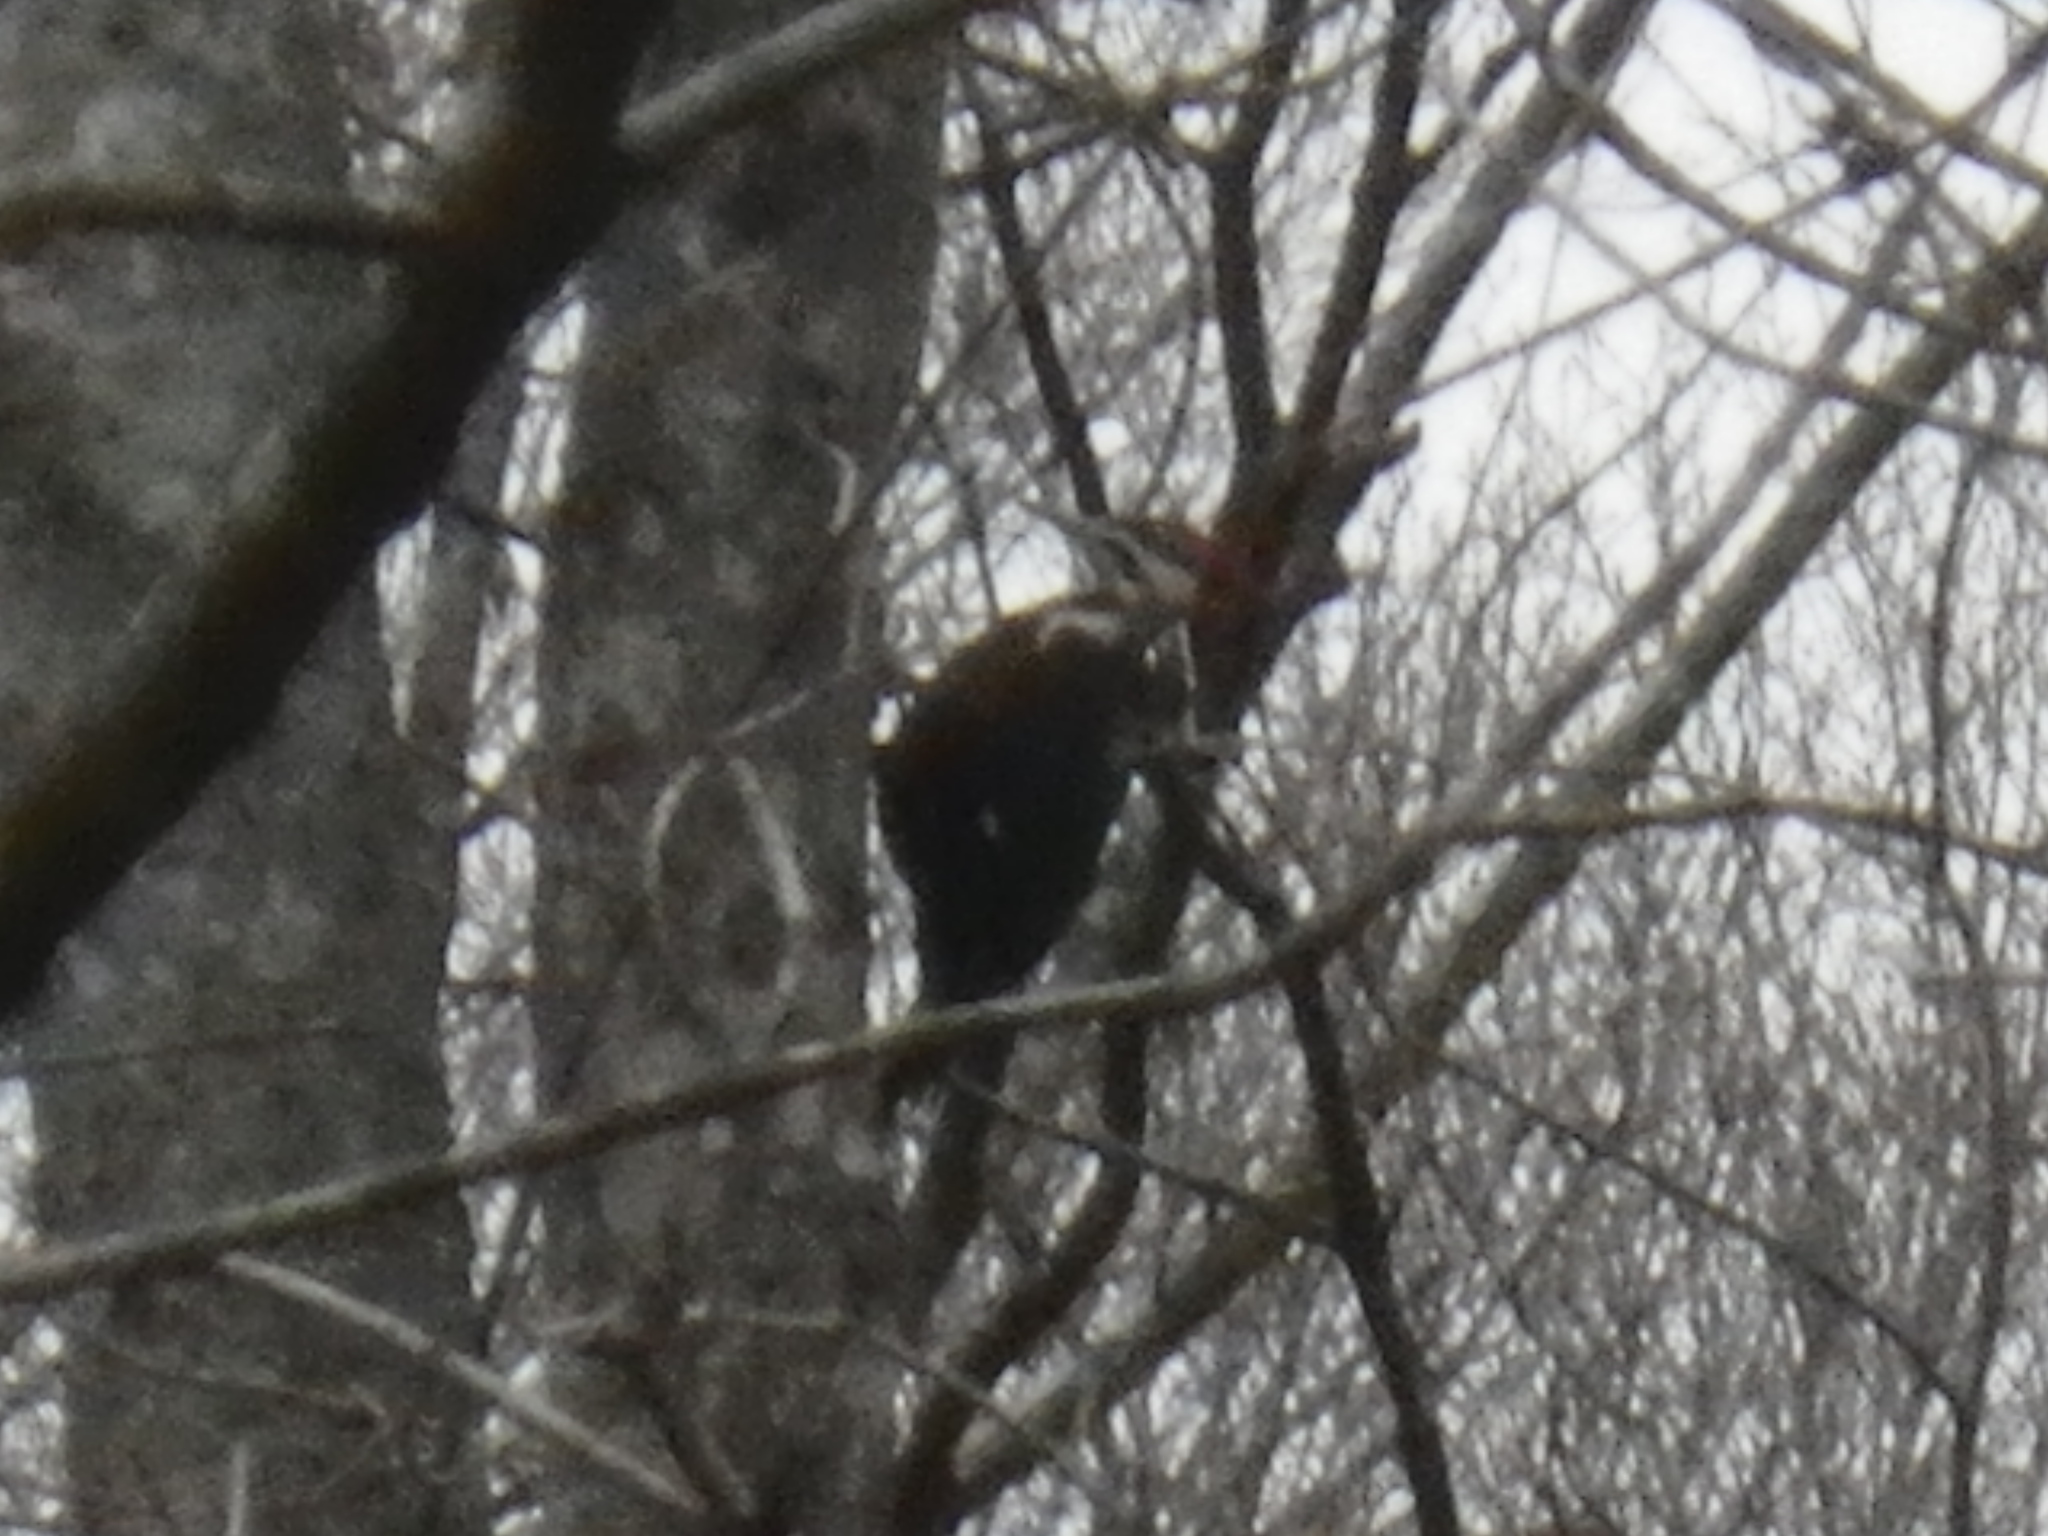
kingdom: Animalia
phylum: Chordata
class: Aves
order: Piciformes
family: Picidae
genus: Dryocopus
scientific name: Dryocopus pileatus
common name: Pileated woodpecker
